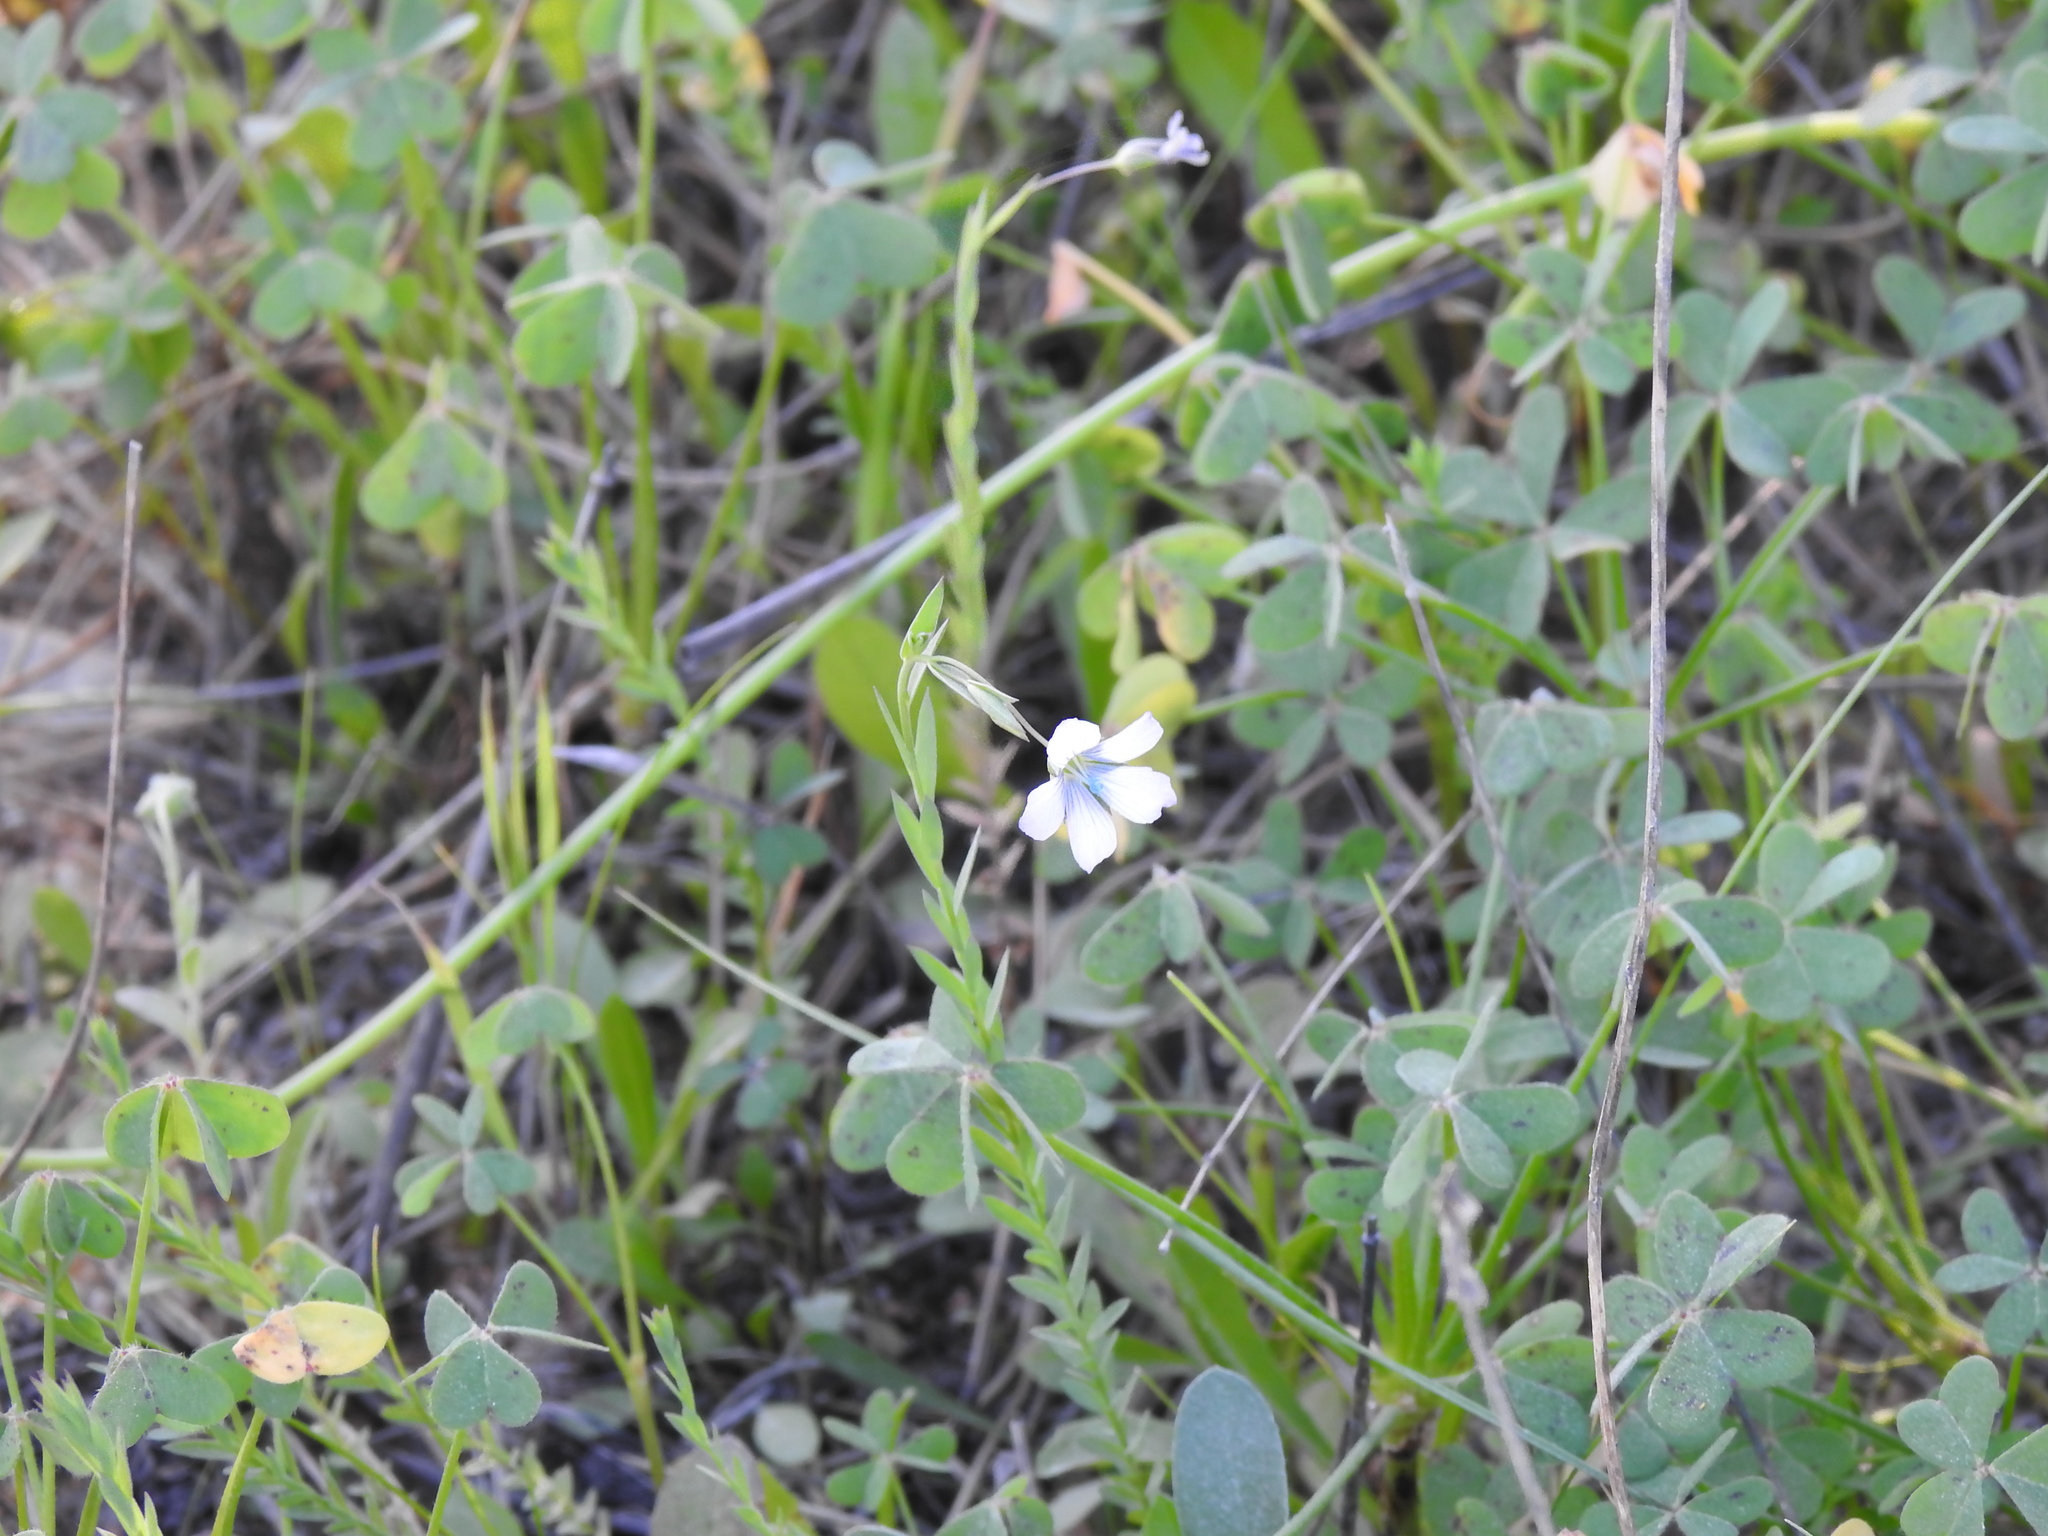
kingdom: Plantae
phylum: Tracheophyta
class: Magnoliopsida
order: Malpighiales
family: Linaceae
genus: Linum
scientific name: Linum bienne
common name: Pale flax
